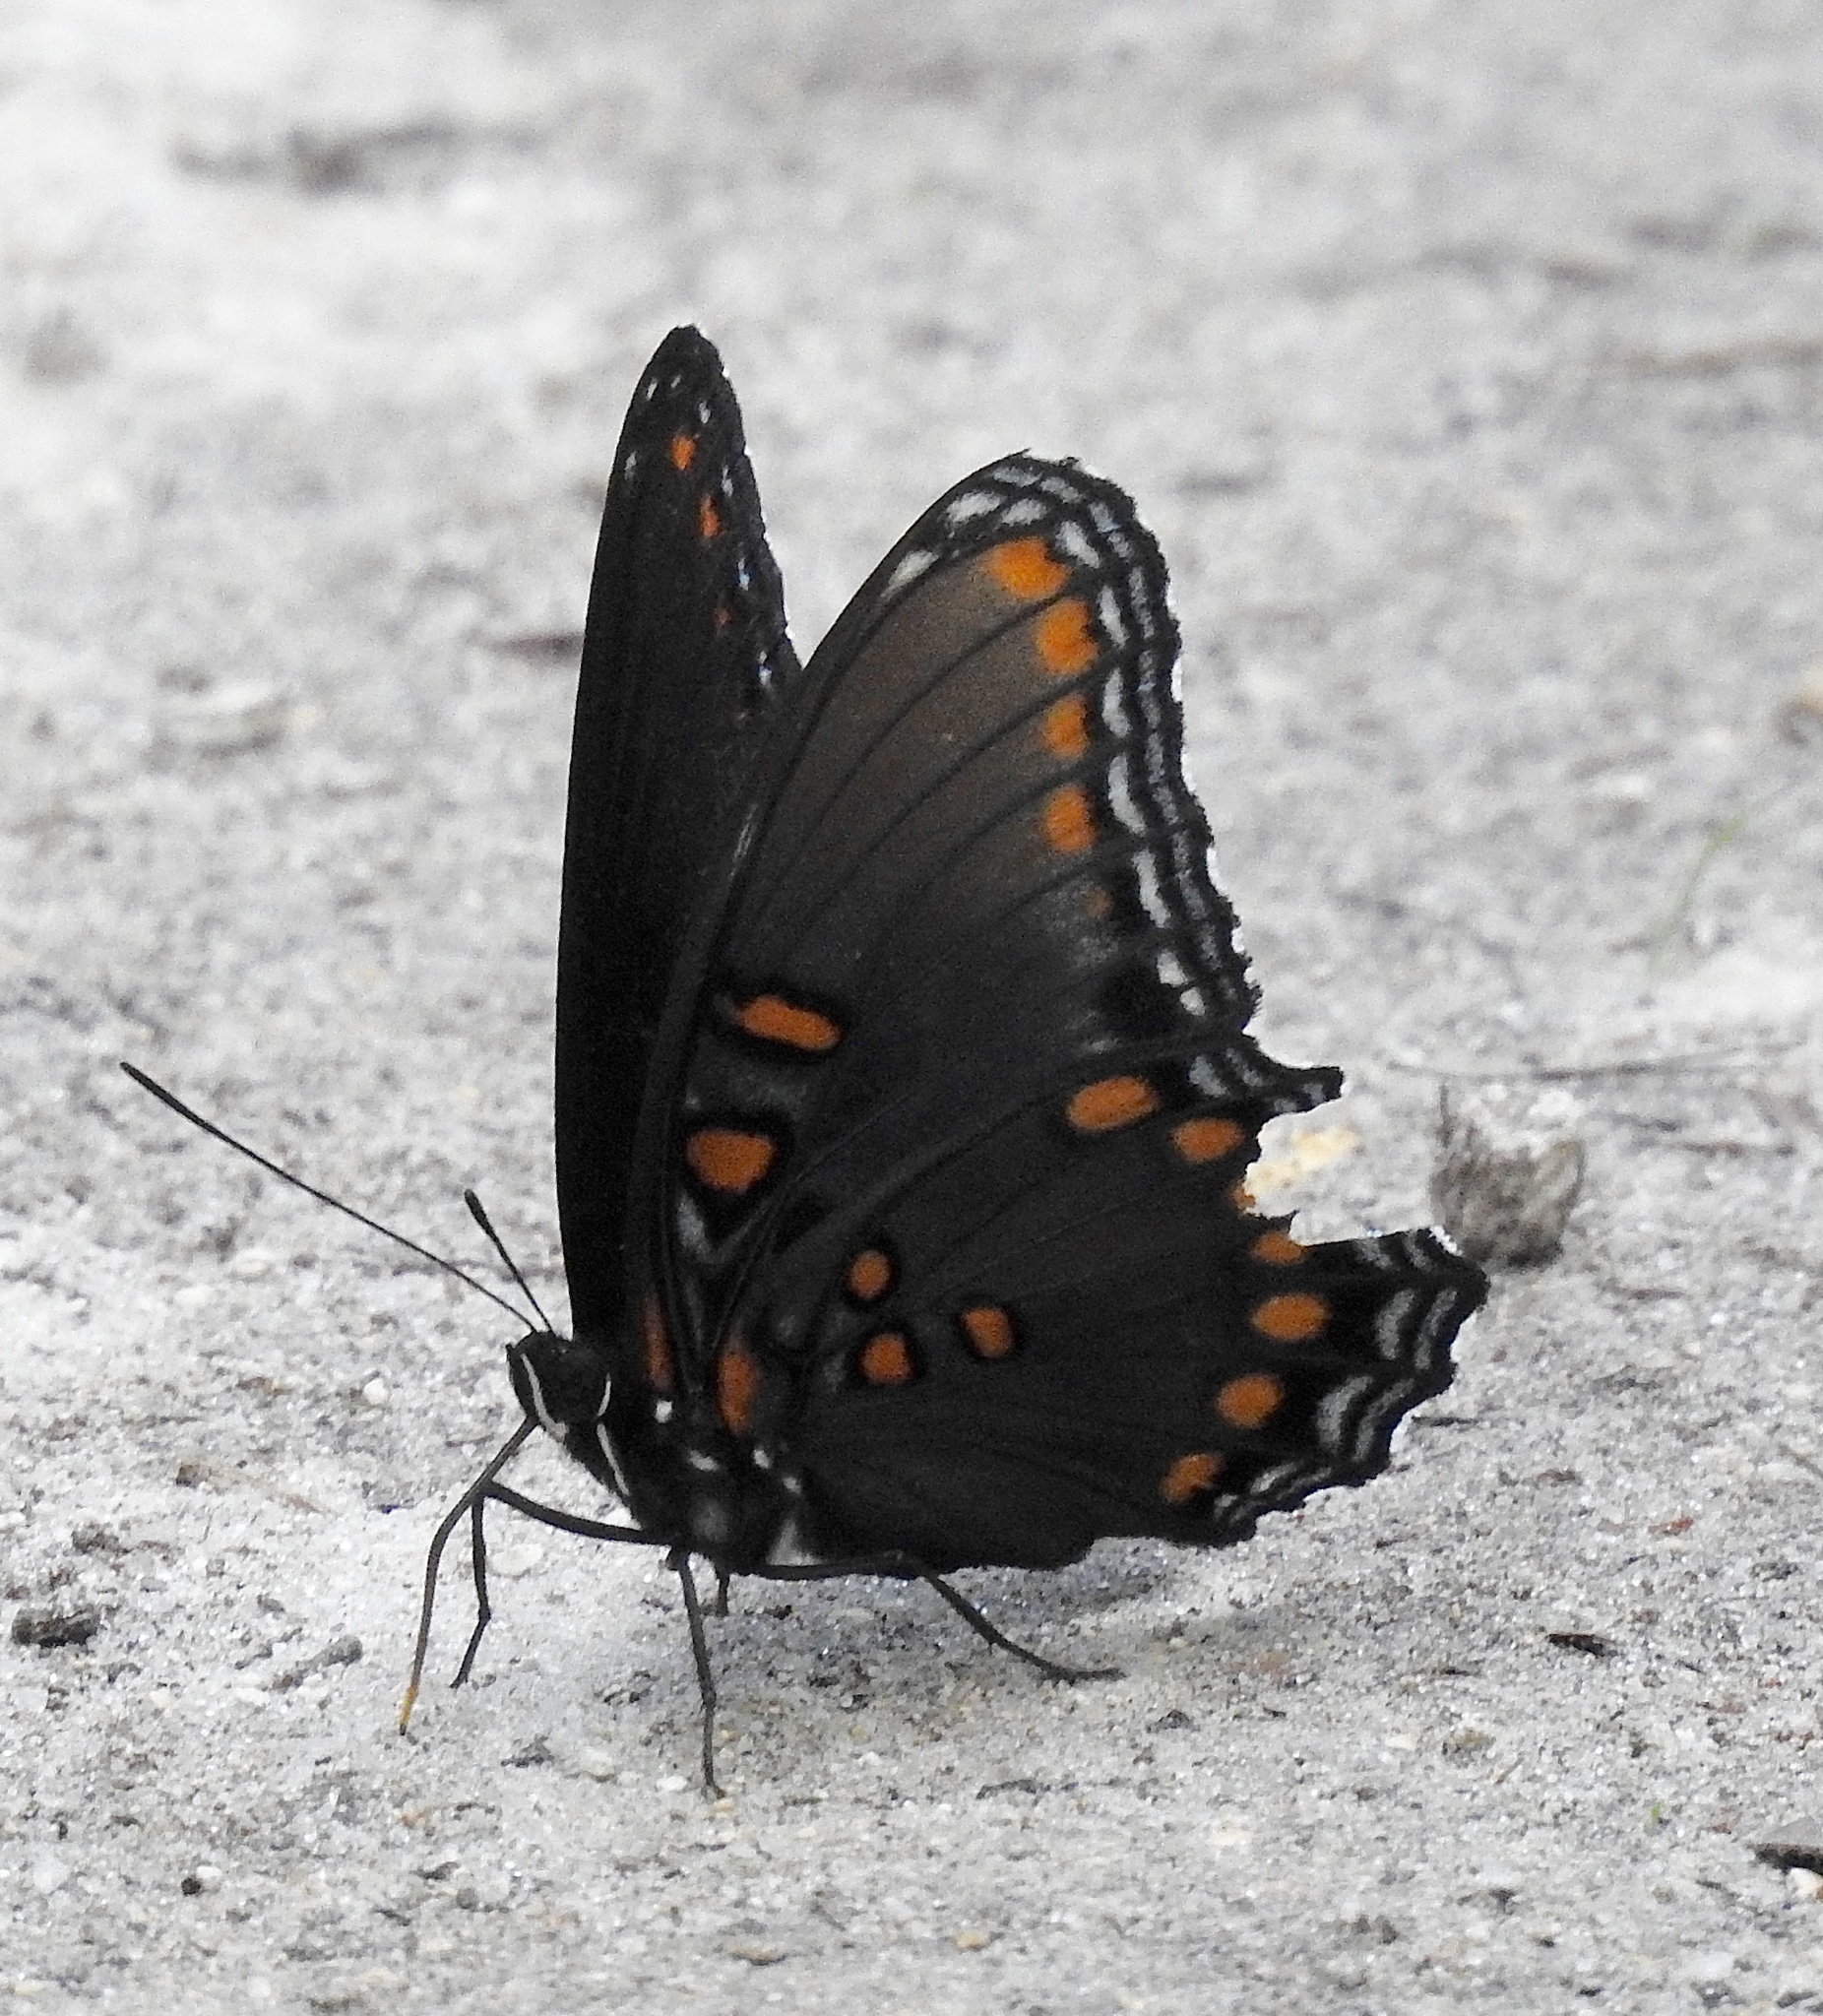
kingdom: Animalia
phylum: Arthropoda
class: Insecta
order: Lepidoptera
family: Nymphalidae
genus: Limenitis
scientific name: Limenitis arthemis
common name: Red-spotted admiral
